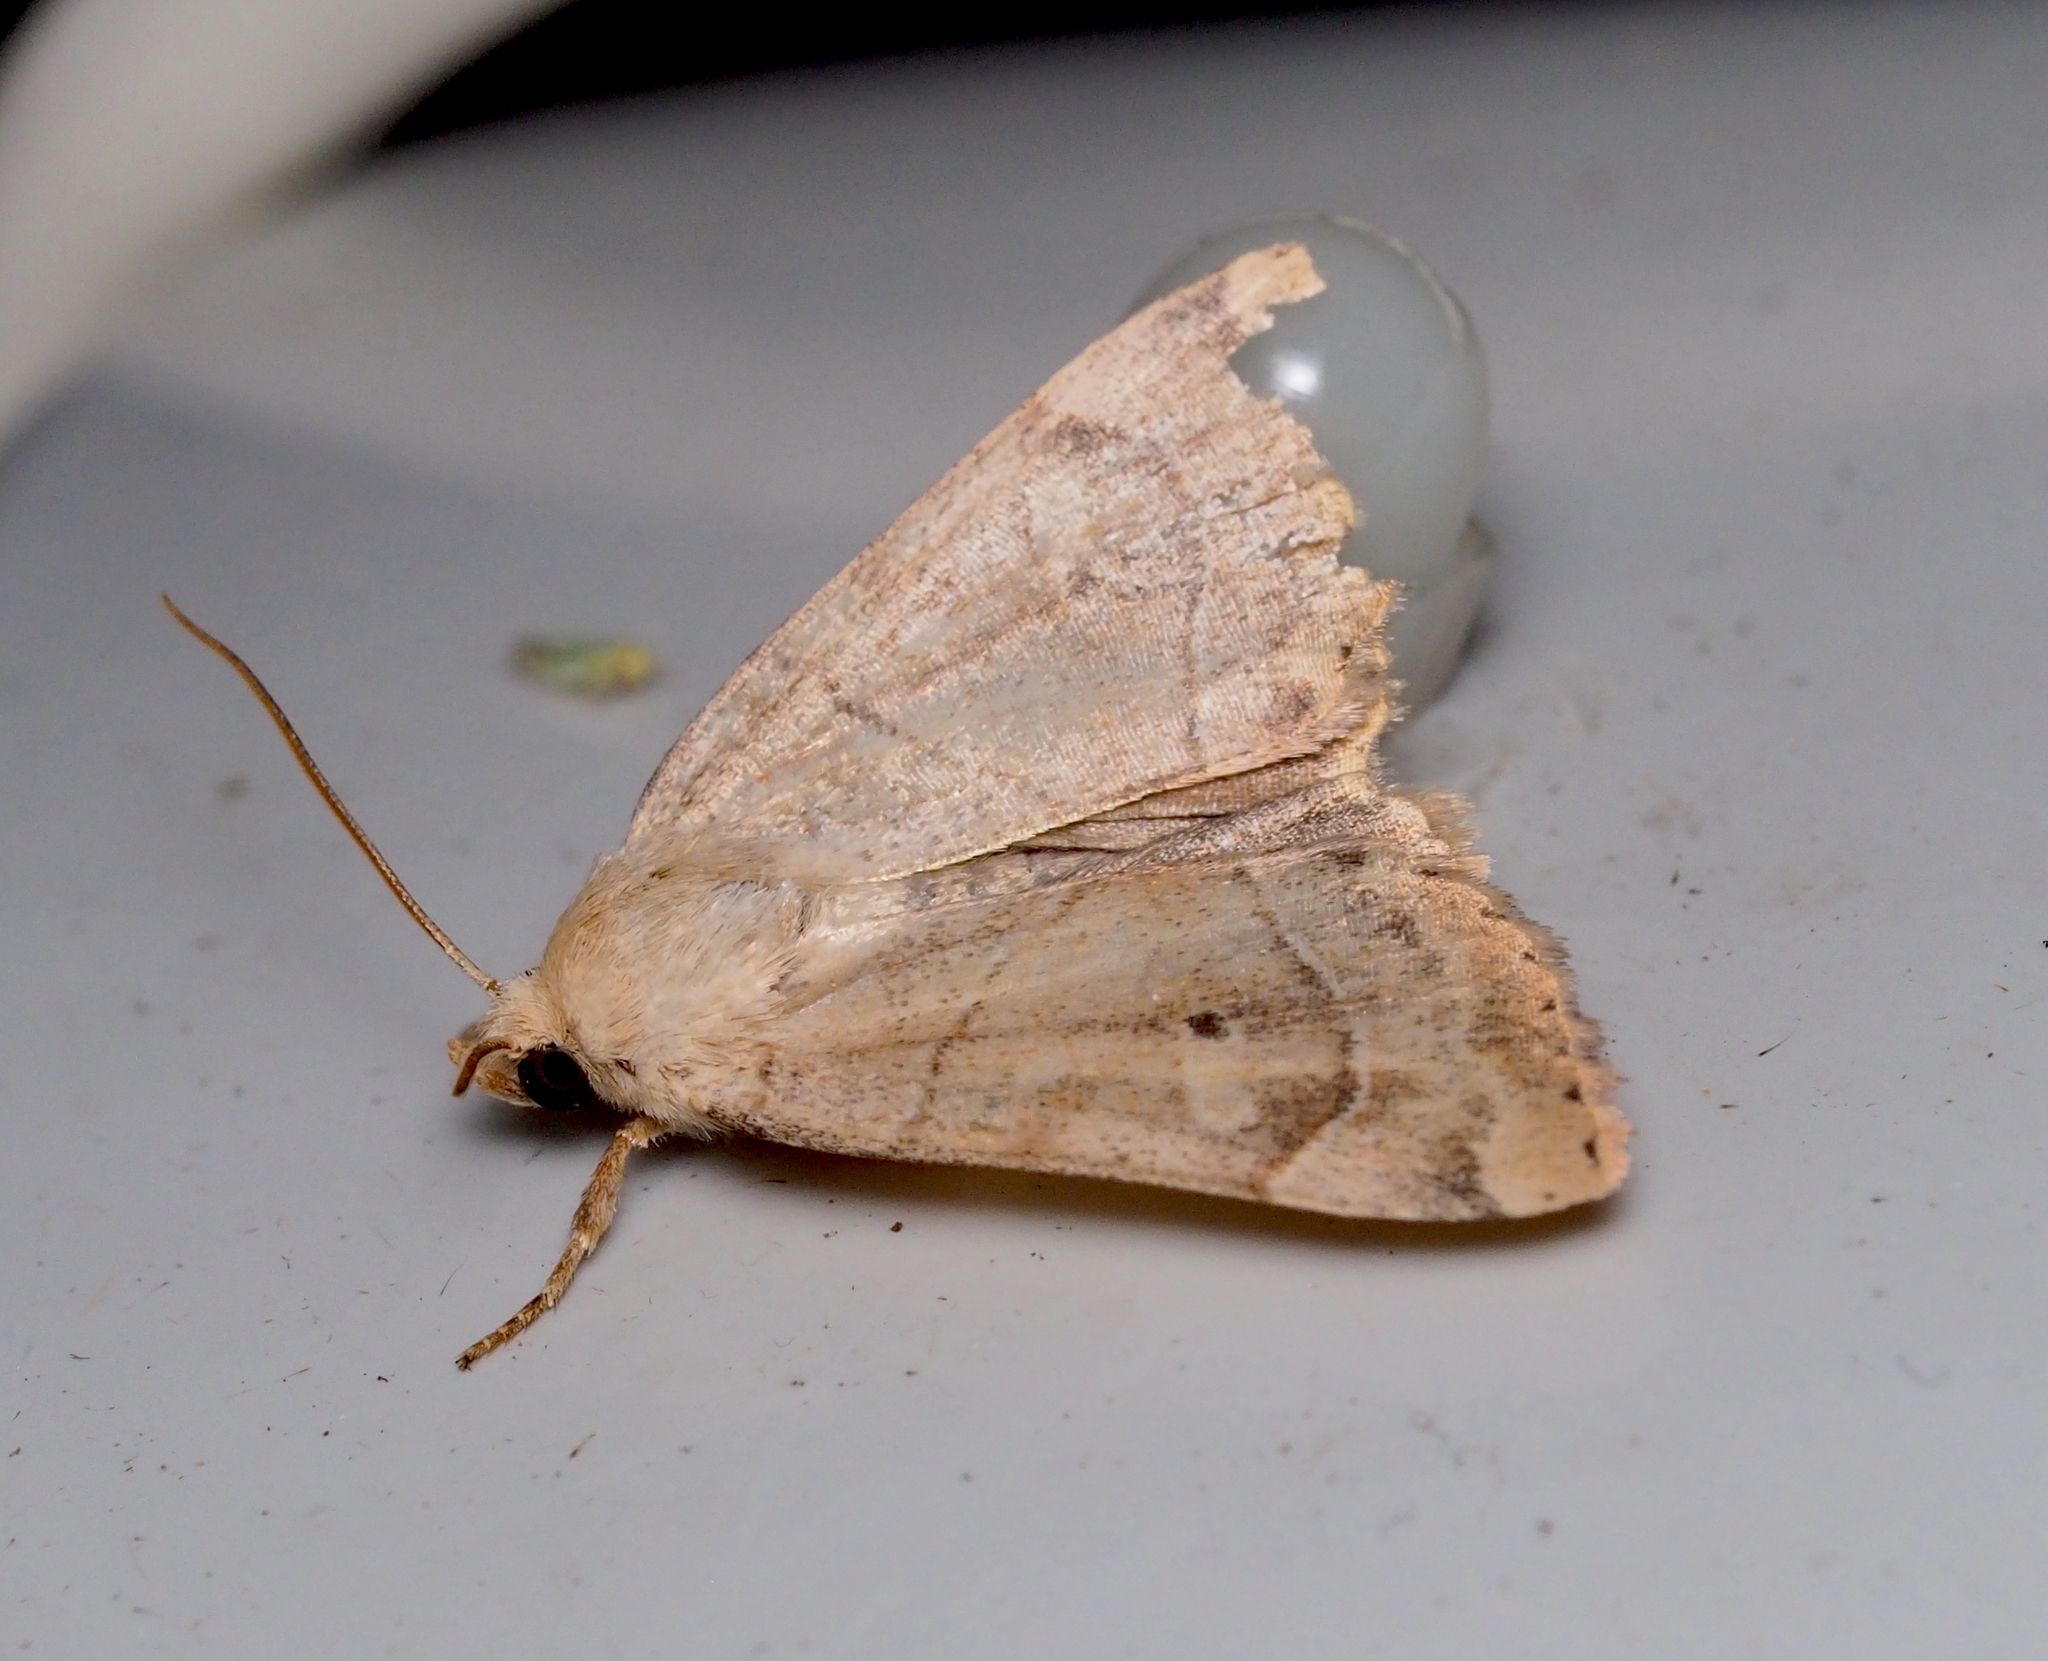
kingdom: Animalia
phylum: Arthropoda
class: Insecta
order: Lepidoptera
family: Noctuidae
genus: Cosmia
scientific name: Cosmia trapezina
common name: Dun-bar
